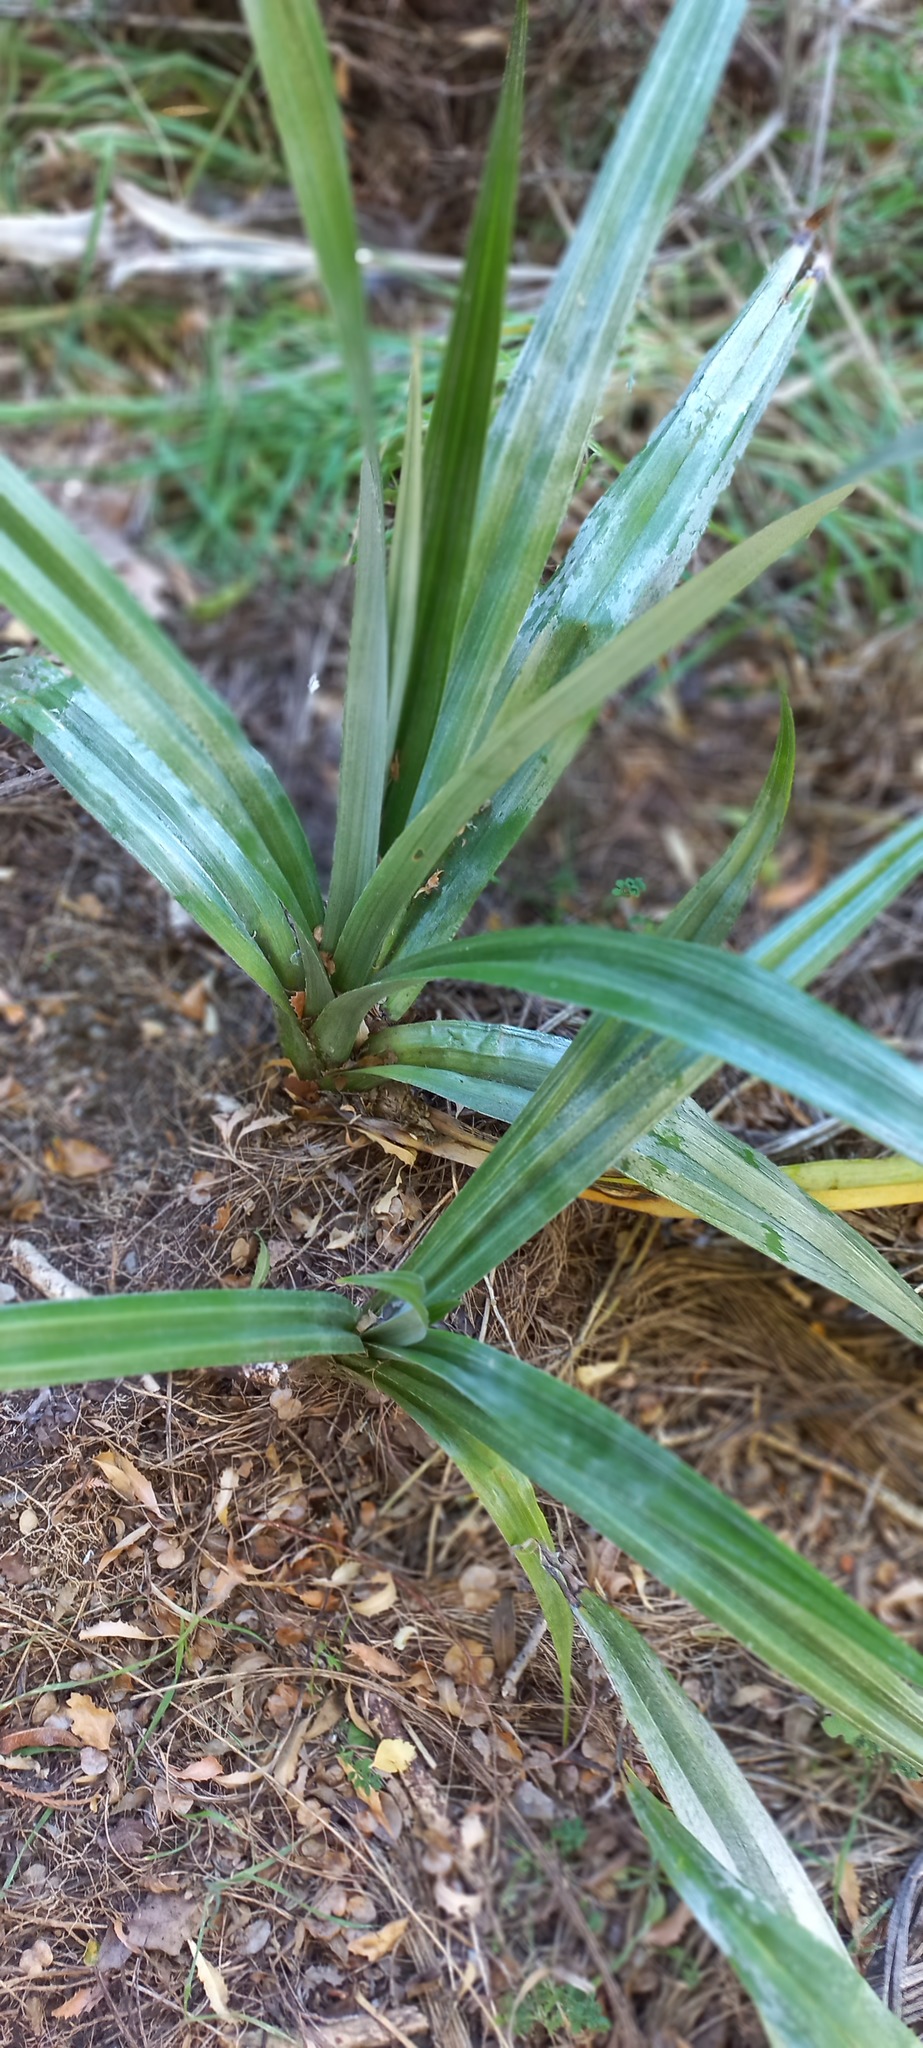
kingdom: Plantae
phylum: Tracheophyta
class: Liliopsida
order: Asparagales
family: Asteliaceae
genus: Astelia
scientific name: Astelia fragrans
